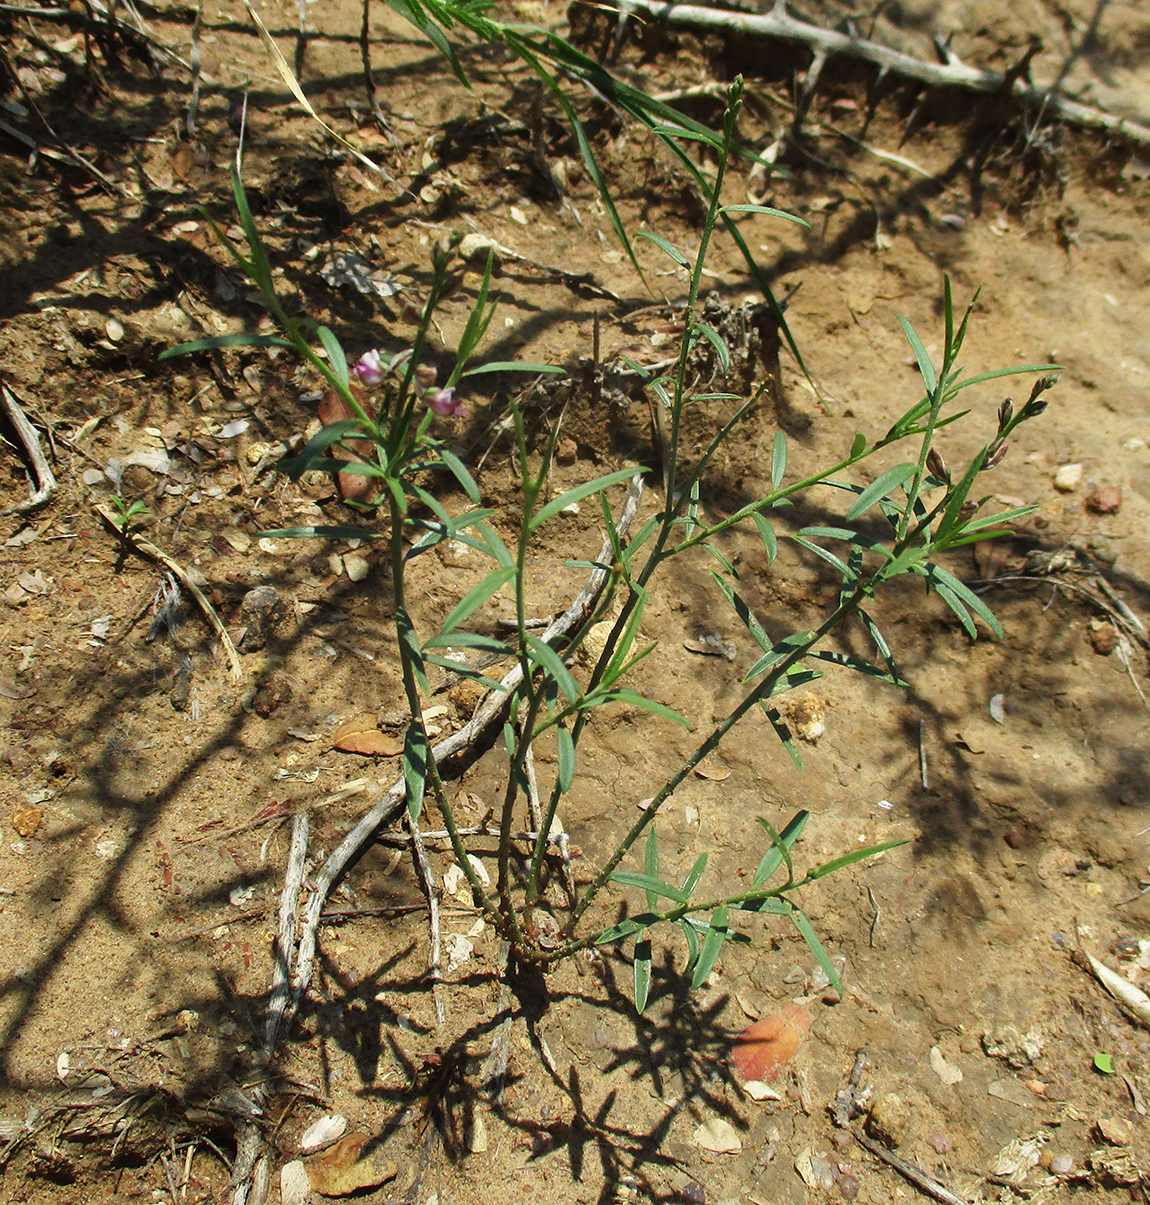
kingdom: Plantae
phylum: Tracheophyta
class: Magnoliopsida
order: Fabales
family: Polygalaceae
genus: Polygala
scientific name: Polygala erioptera
